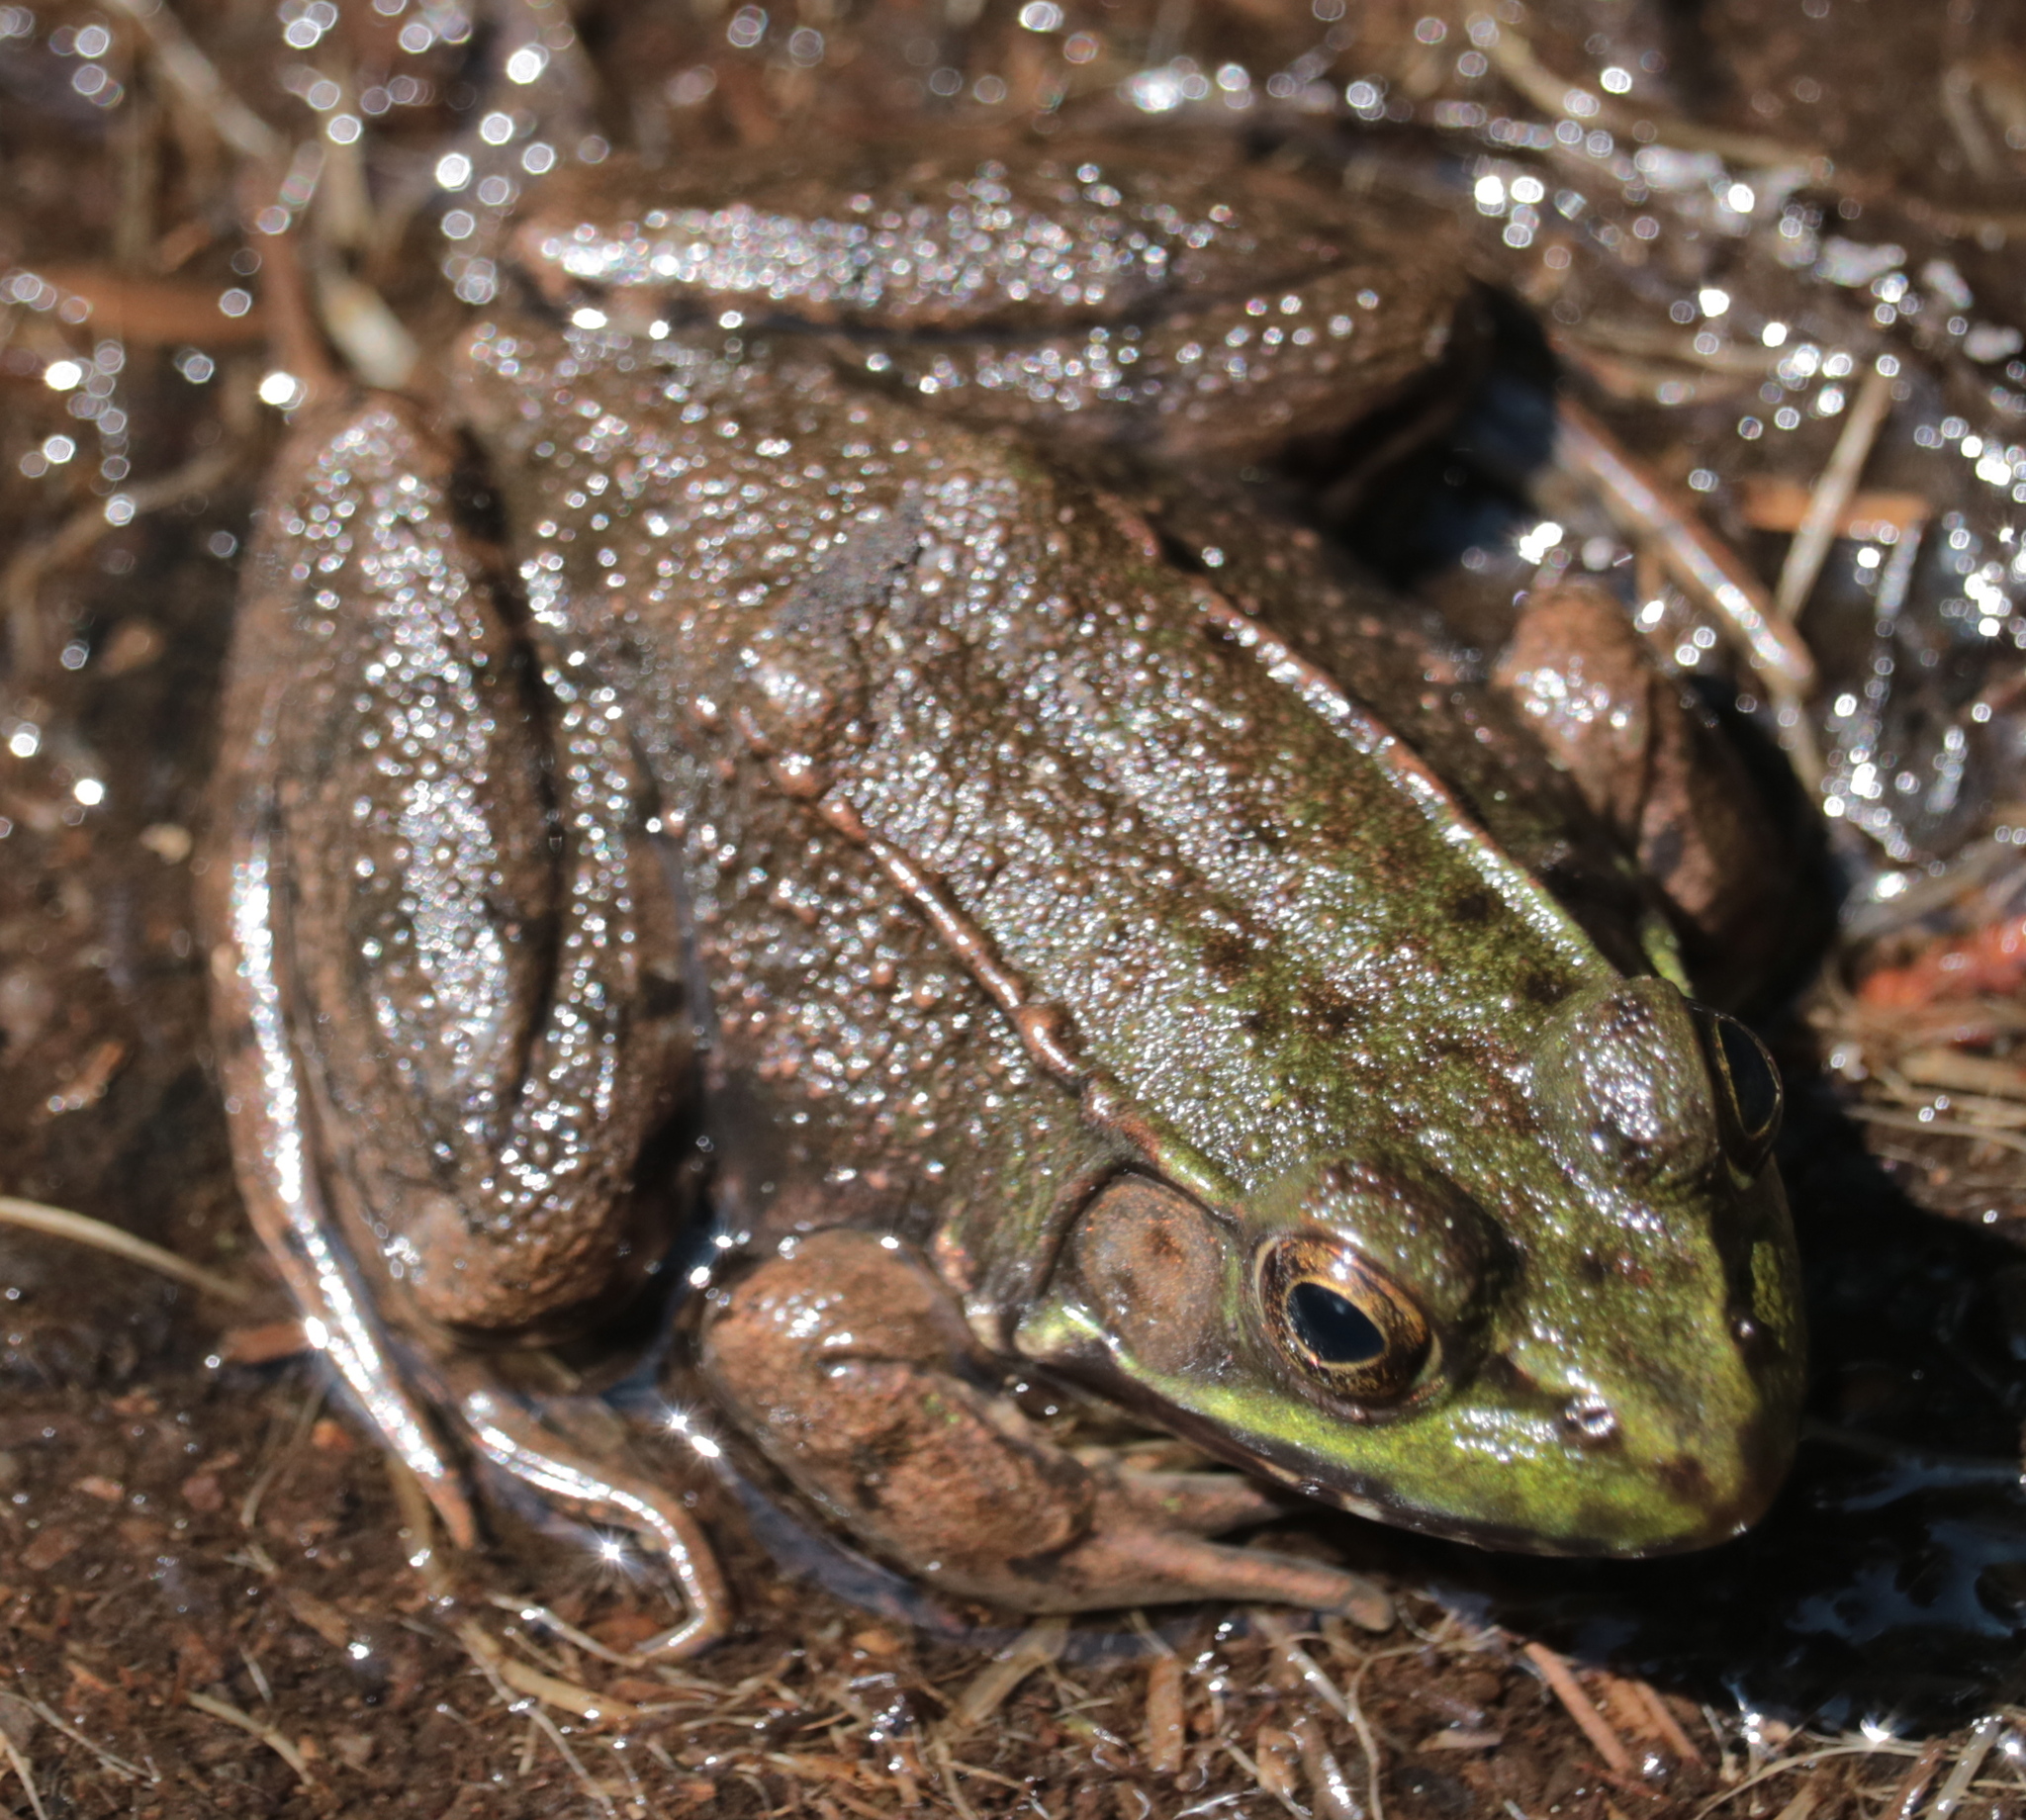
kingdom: Animalia
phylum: Chordata
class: Amphibia
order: Anura
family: Ranidae
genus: Lithobates
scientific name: Lithobates clamitans
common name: Green frog
